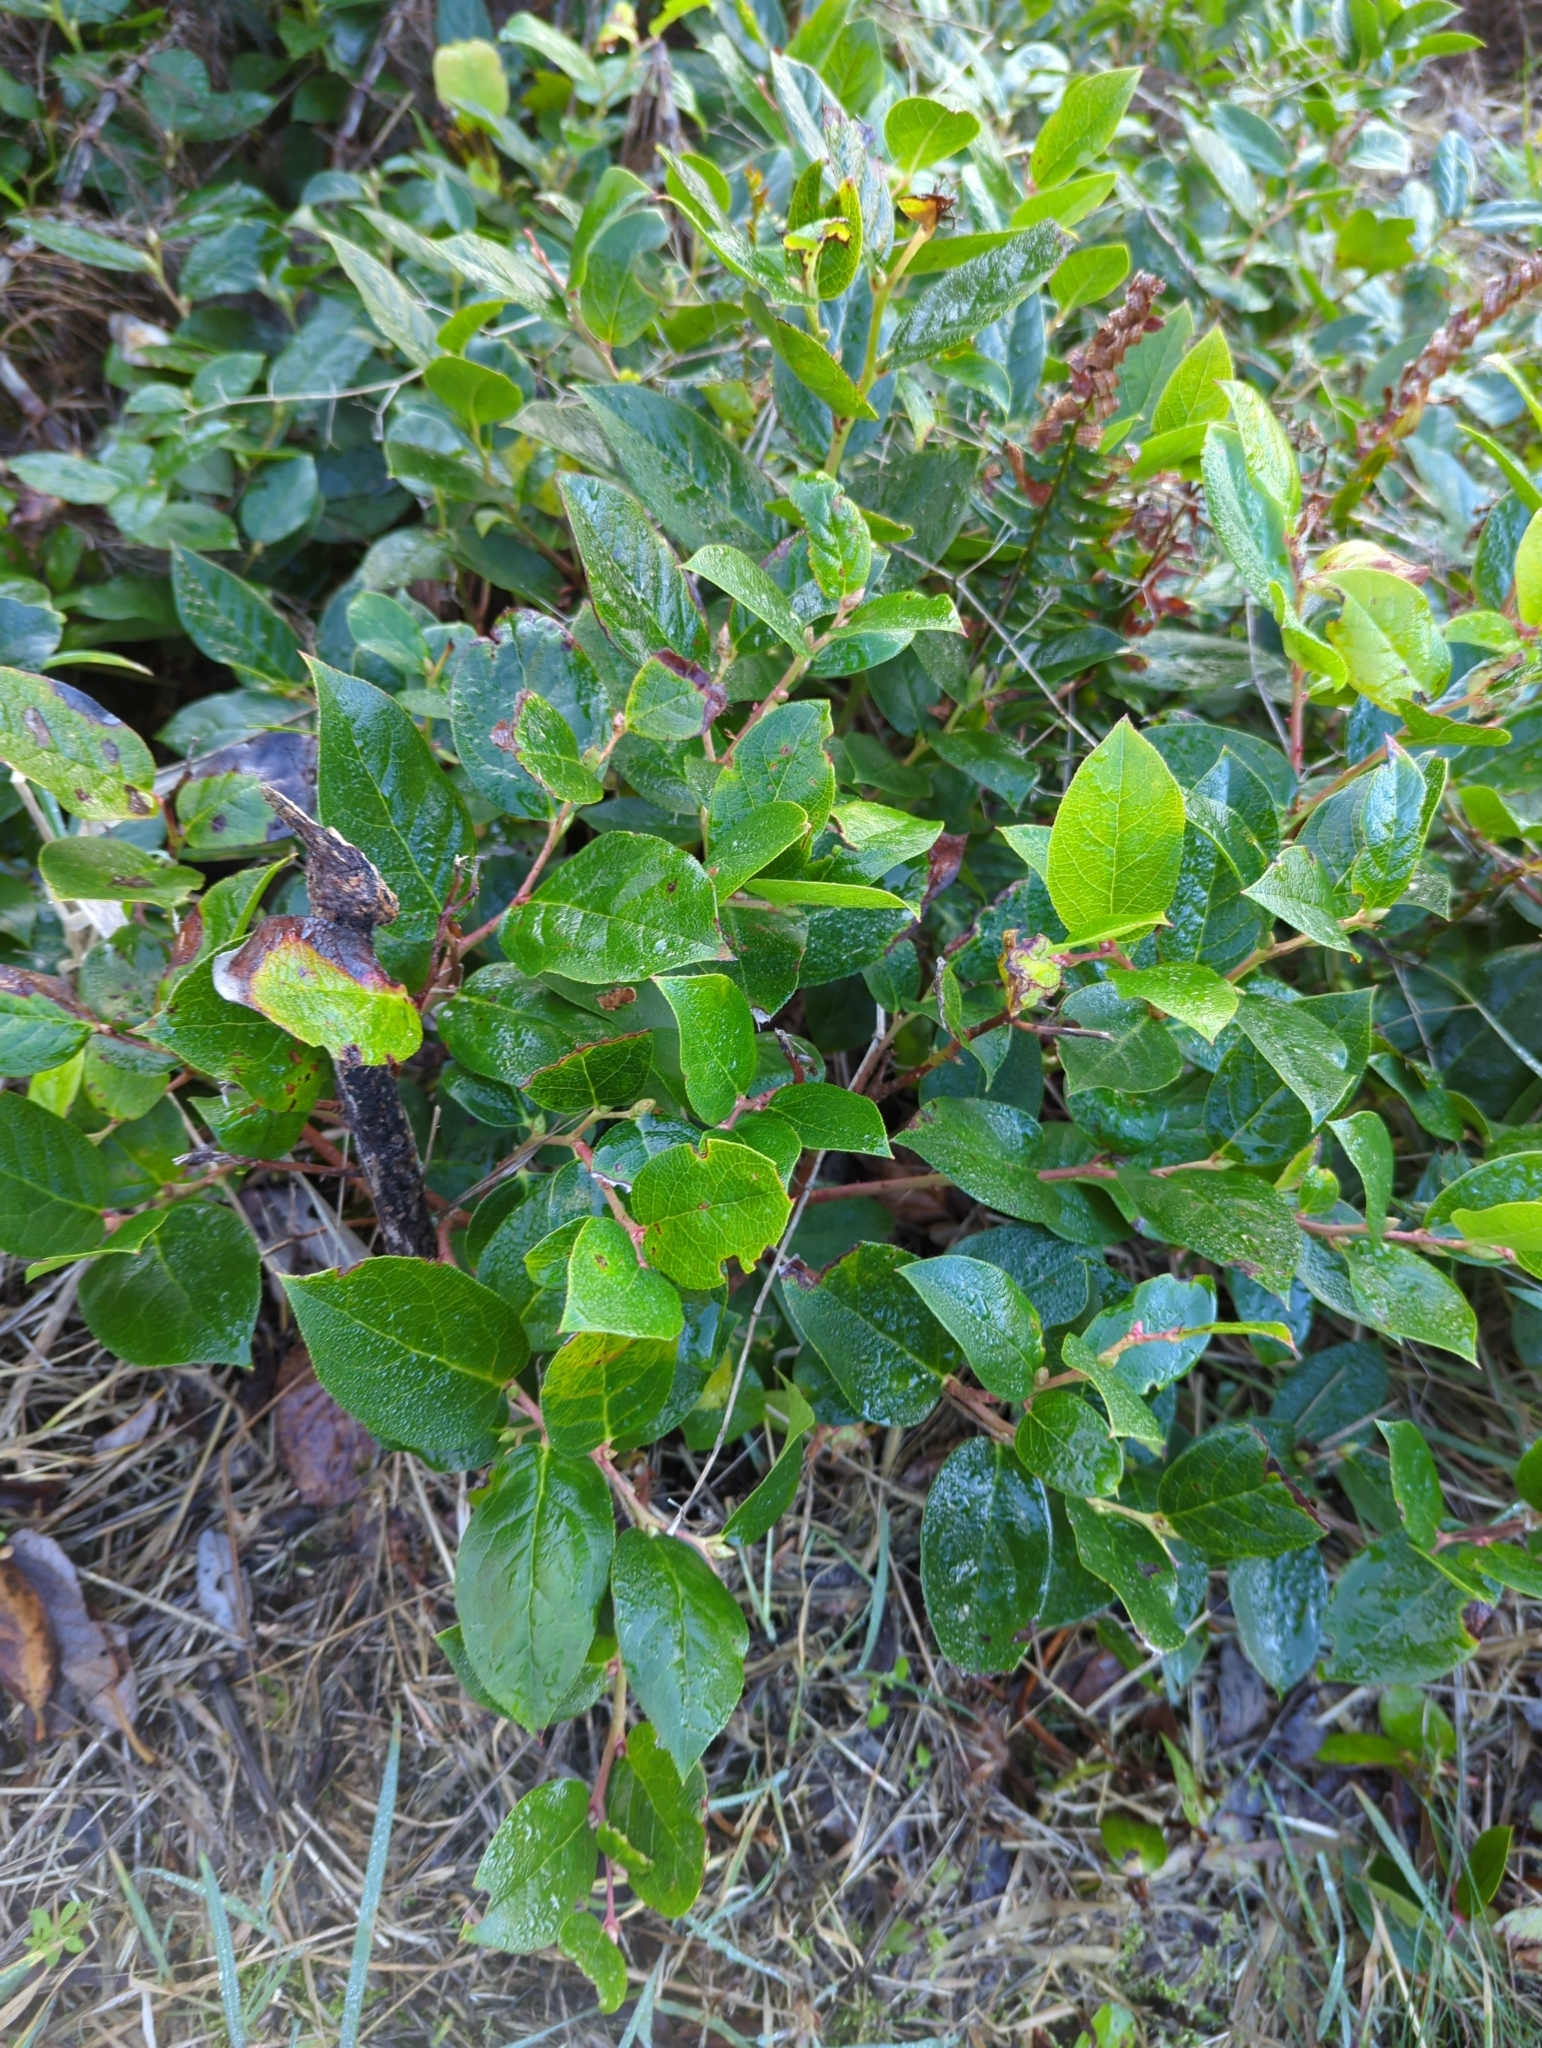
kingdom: Plantae
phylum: Tracheophyta
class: Magnoliopsida
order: Ericales
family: Ericaceae
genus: Gaultheria
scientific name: Gaultheria shallon
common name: Shallon
